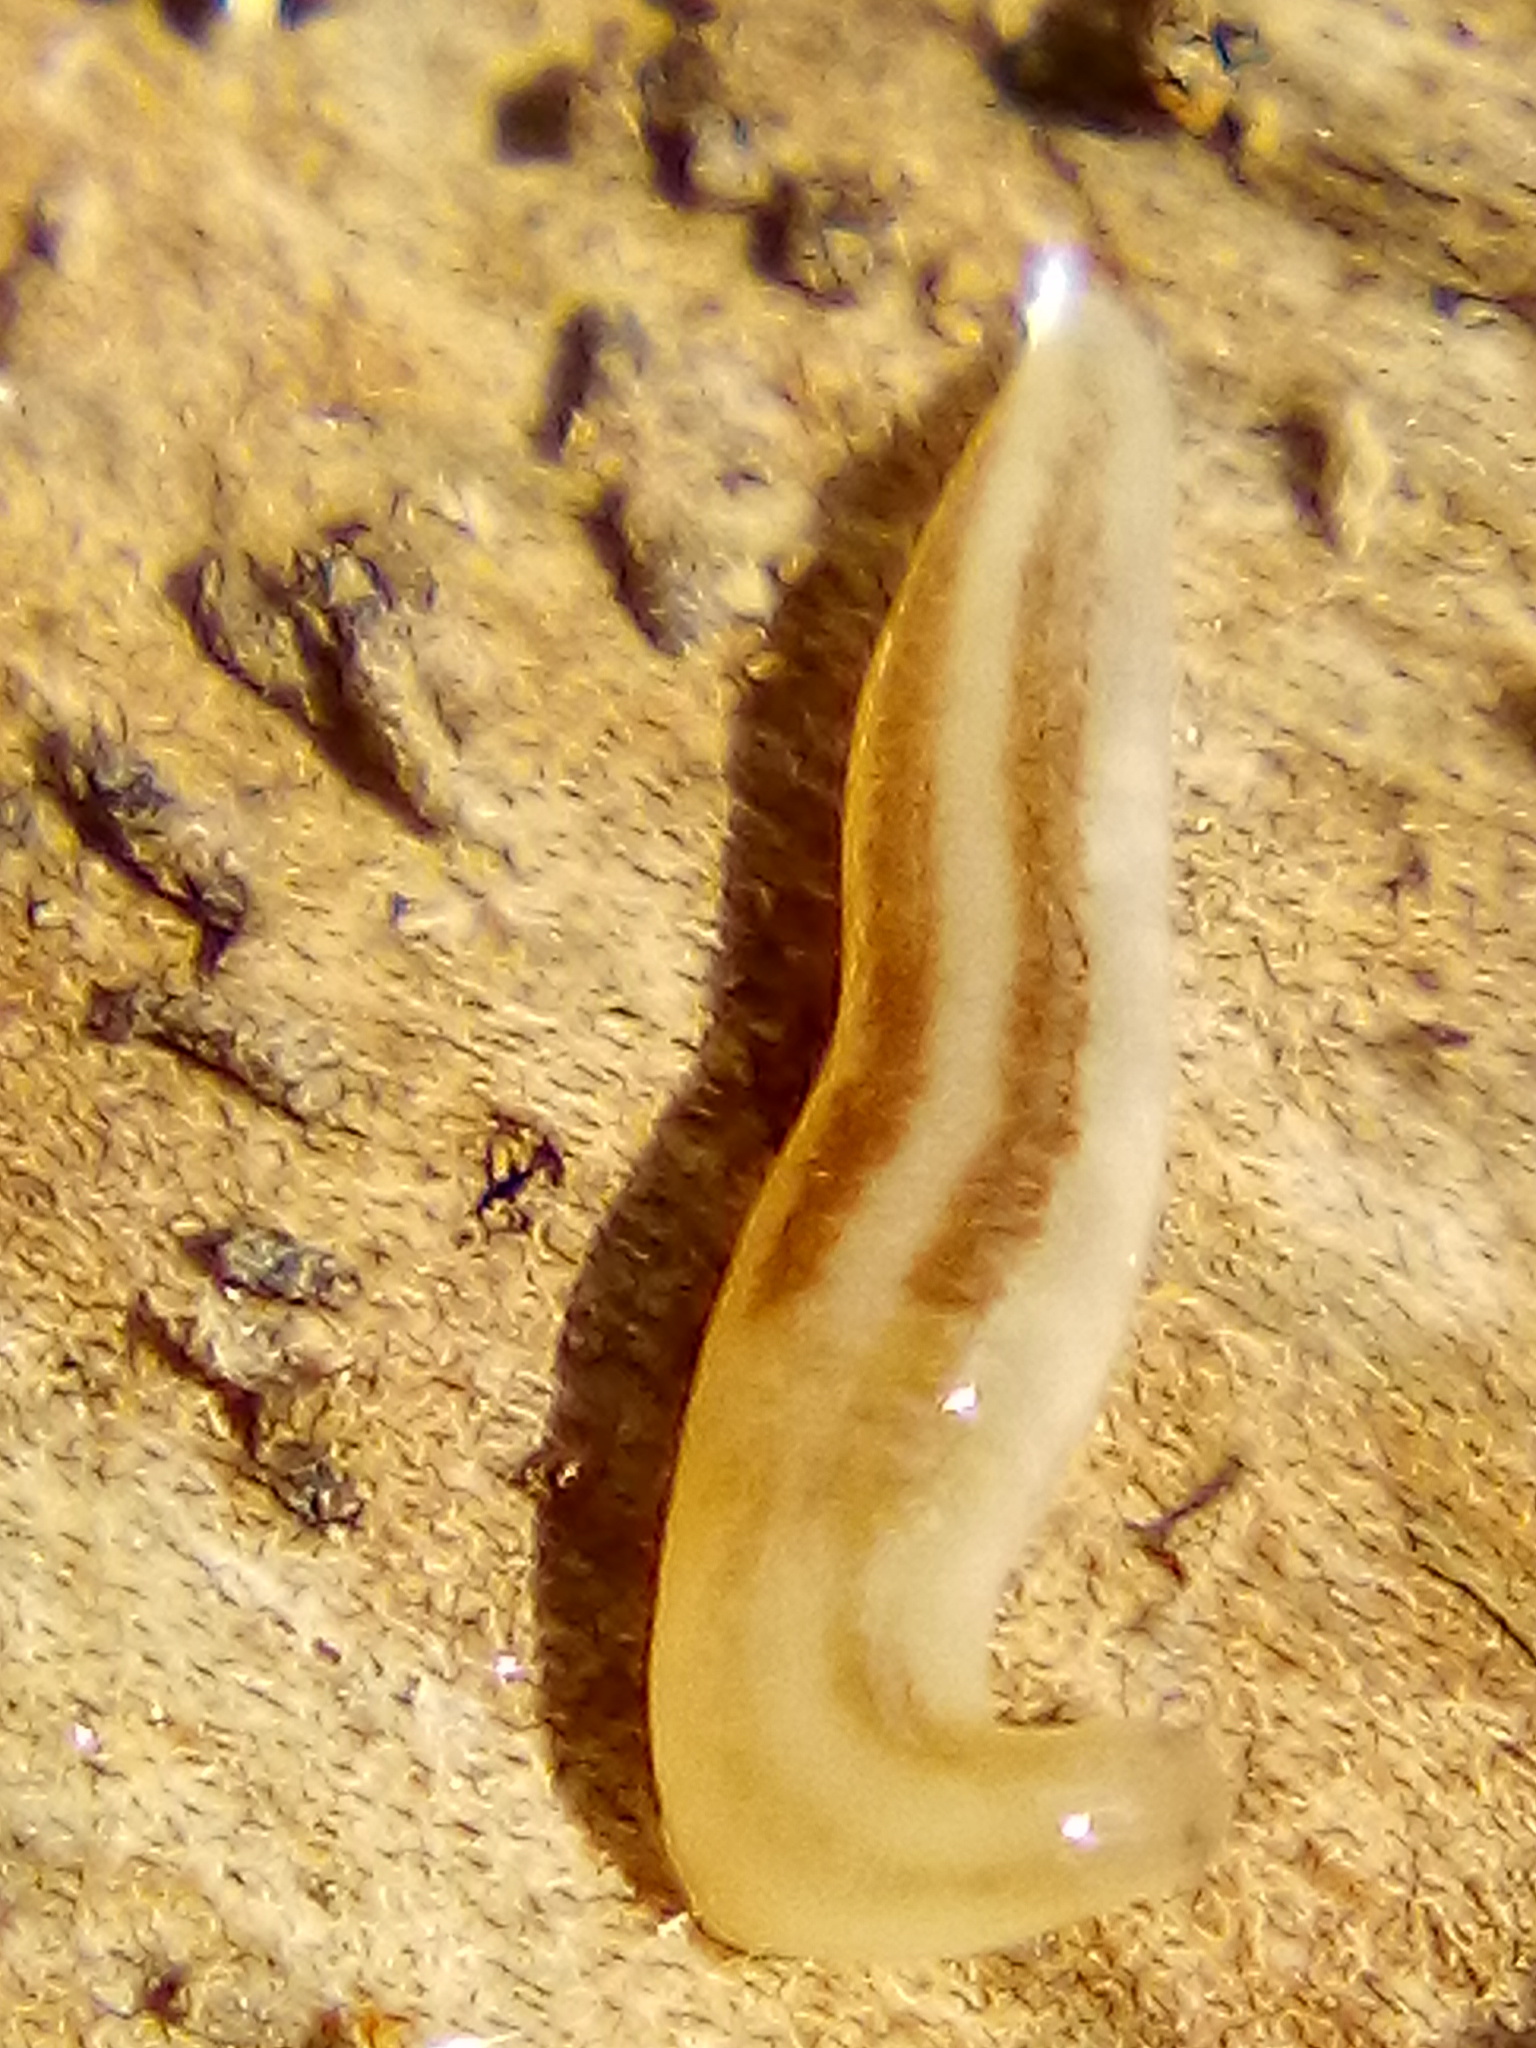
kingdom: Animalia
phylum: Nemertea
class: Hoplonemertea
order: Monostilifera
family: Acteonemertidae
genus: Argonemertes
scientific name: Argonemertes dendyi
